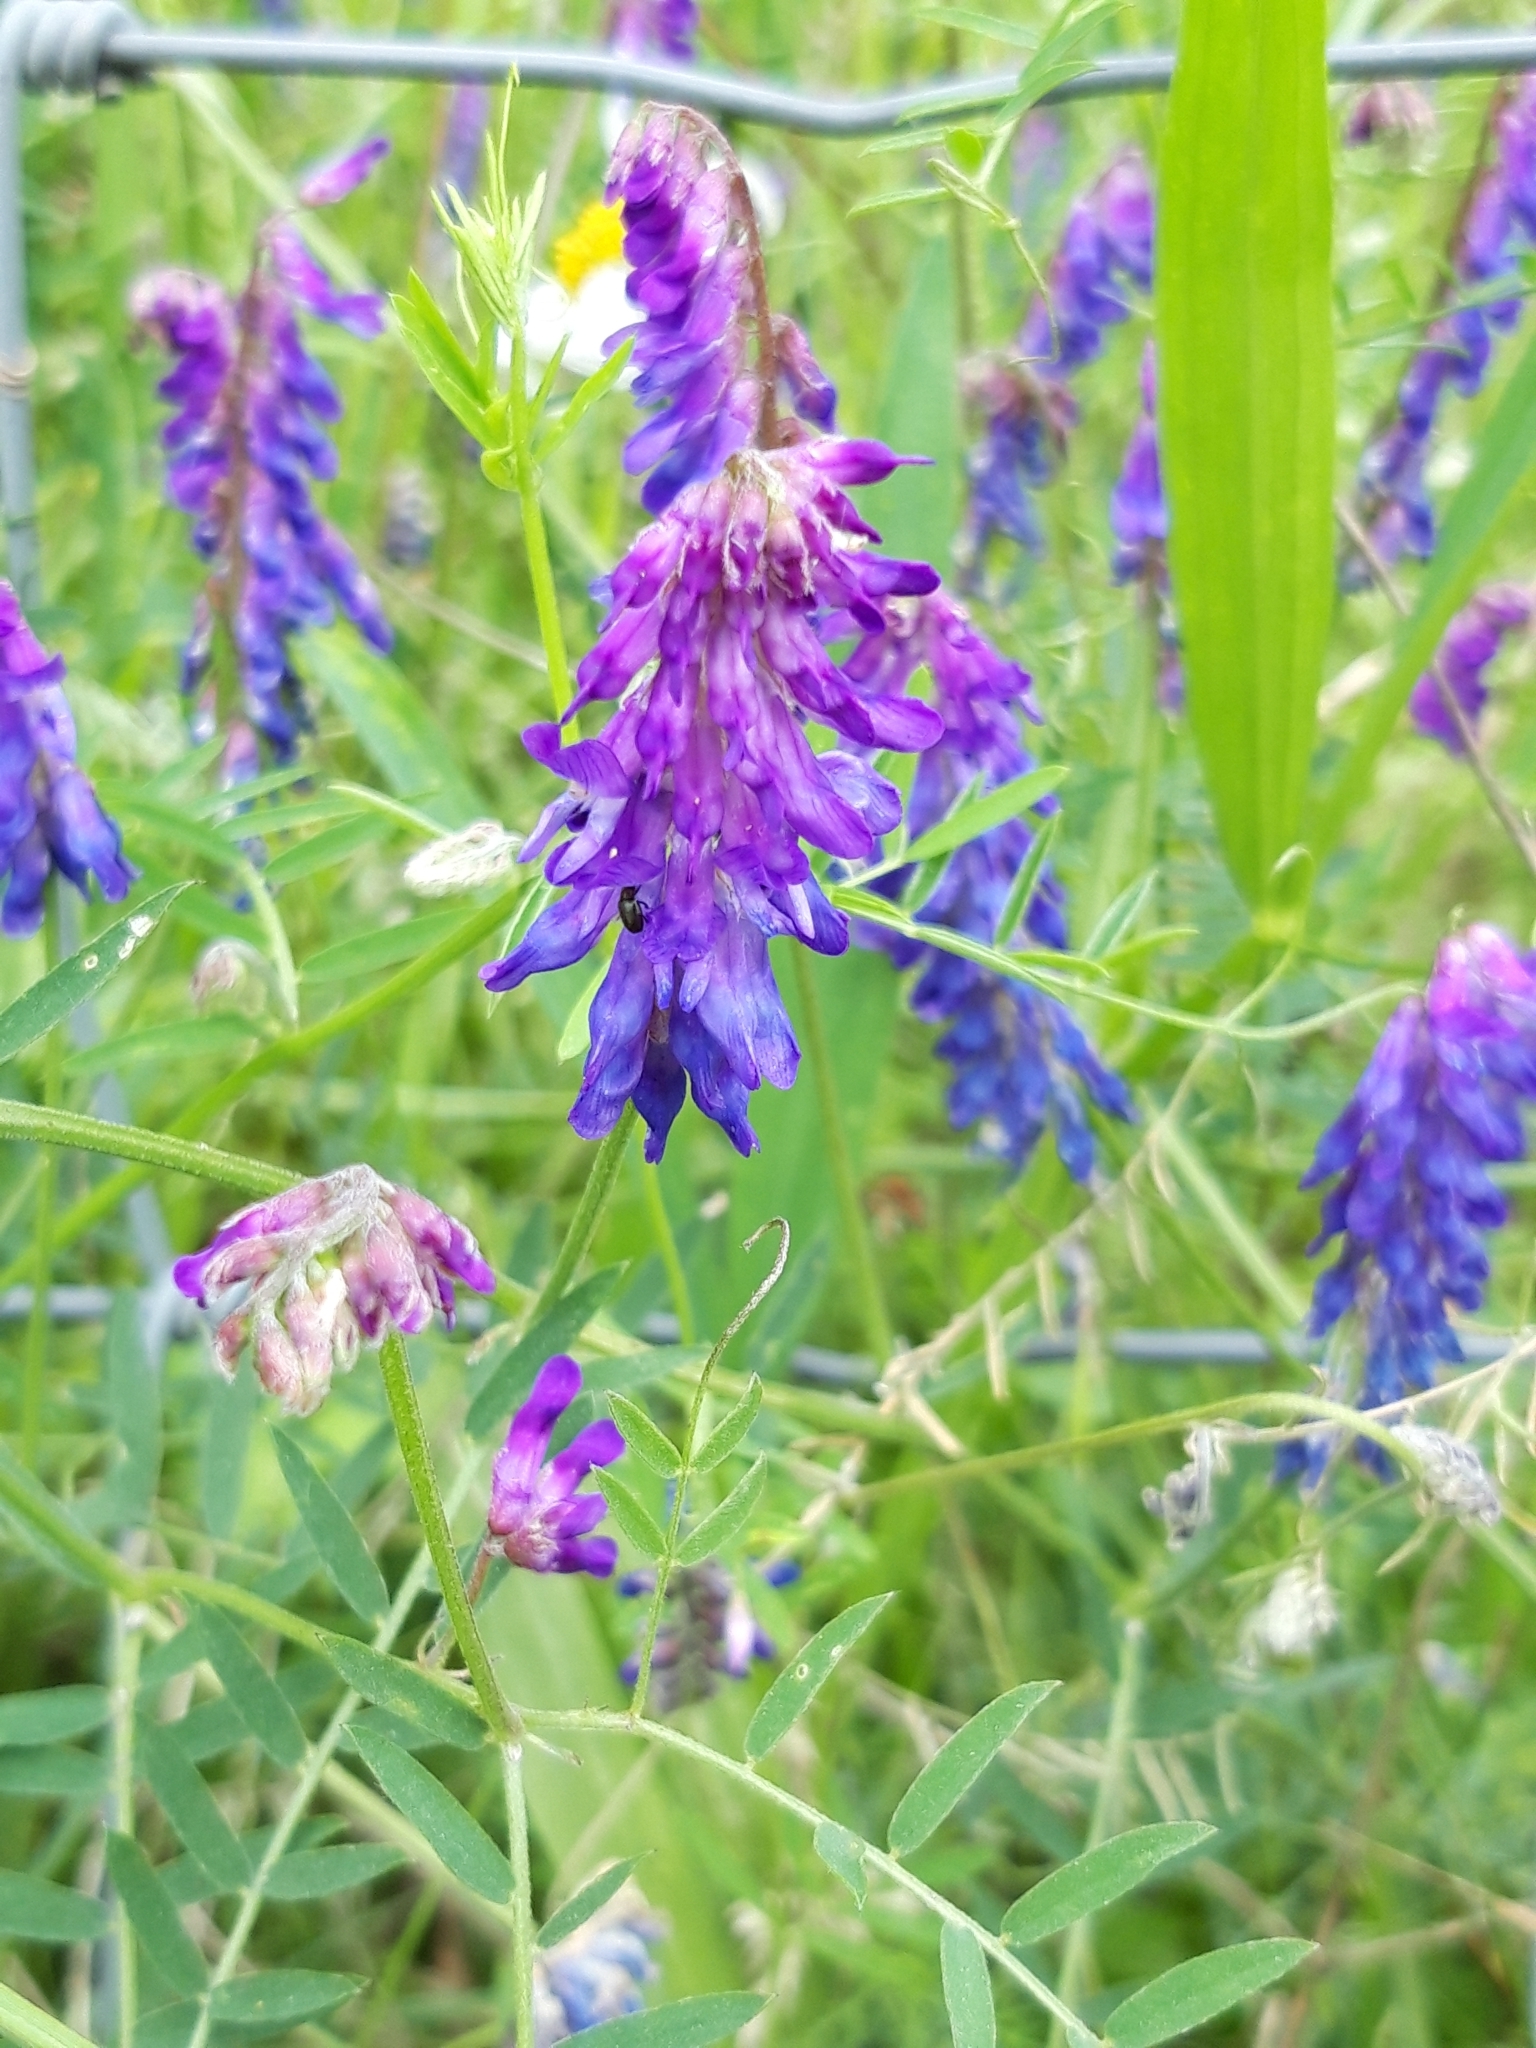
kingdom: Plantae
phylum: Tracheophyta
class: Magnoliopsida
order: Fabales
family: Fabaceae
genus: Vicia
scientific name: Vicia cracca
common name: Bird vetch
